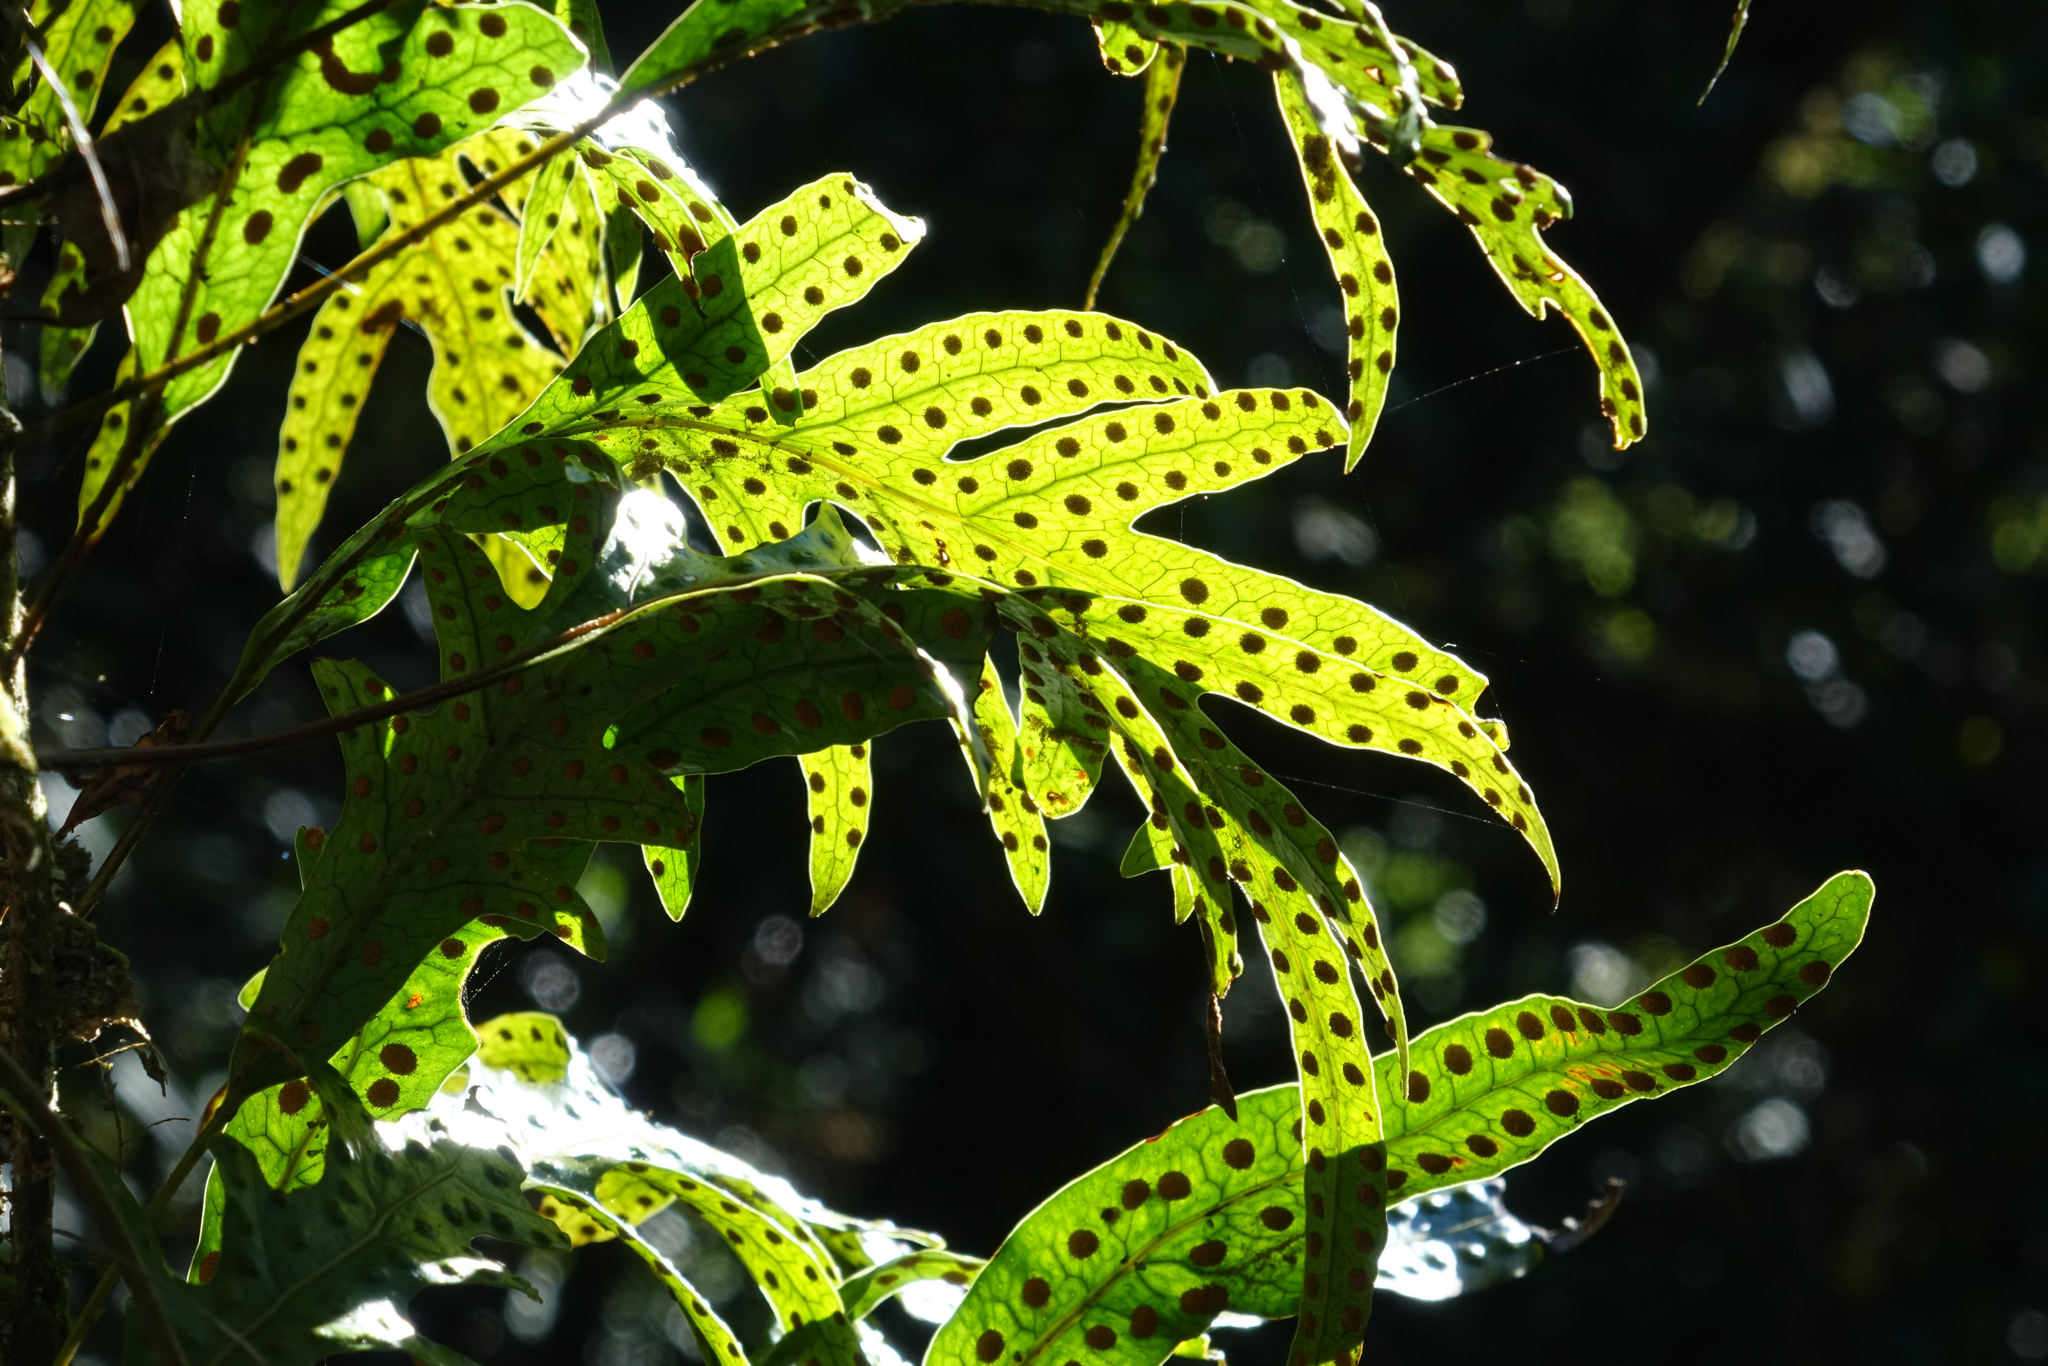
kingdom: Plantae
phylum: Tracheophyta
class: Polypodiopsida
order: Polypodiales
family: Polypodiaceae
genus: Lecanopteris
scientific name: Lecanopteris pustulata
